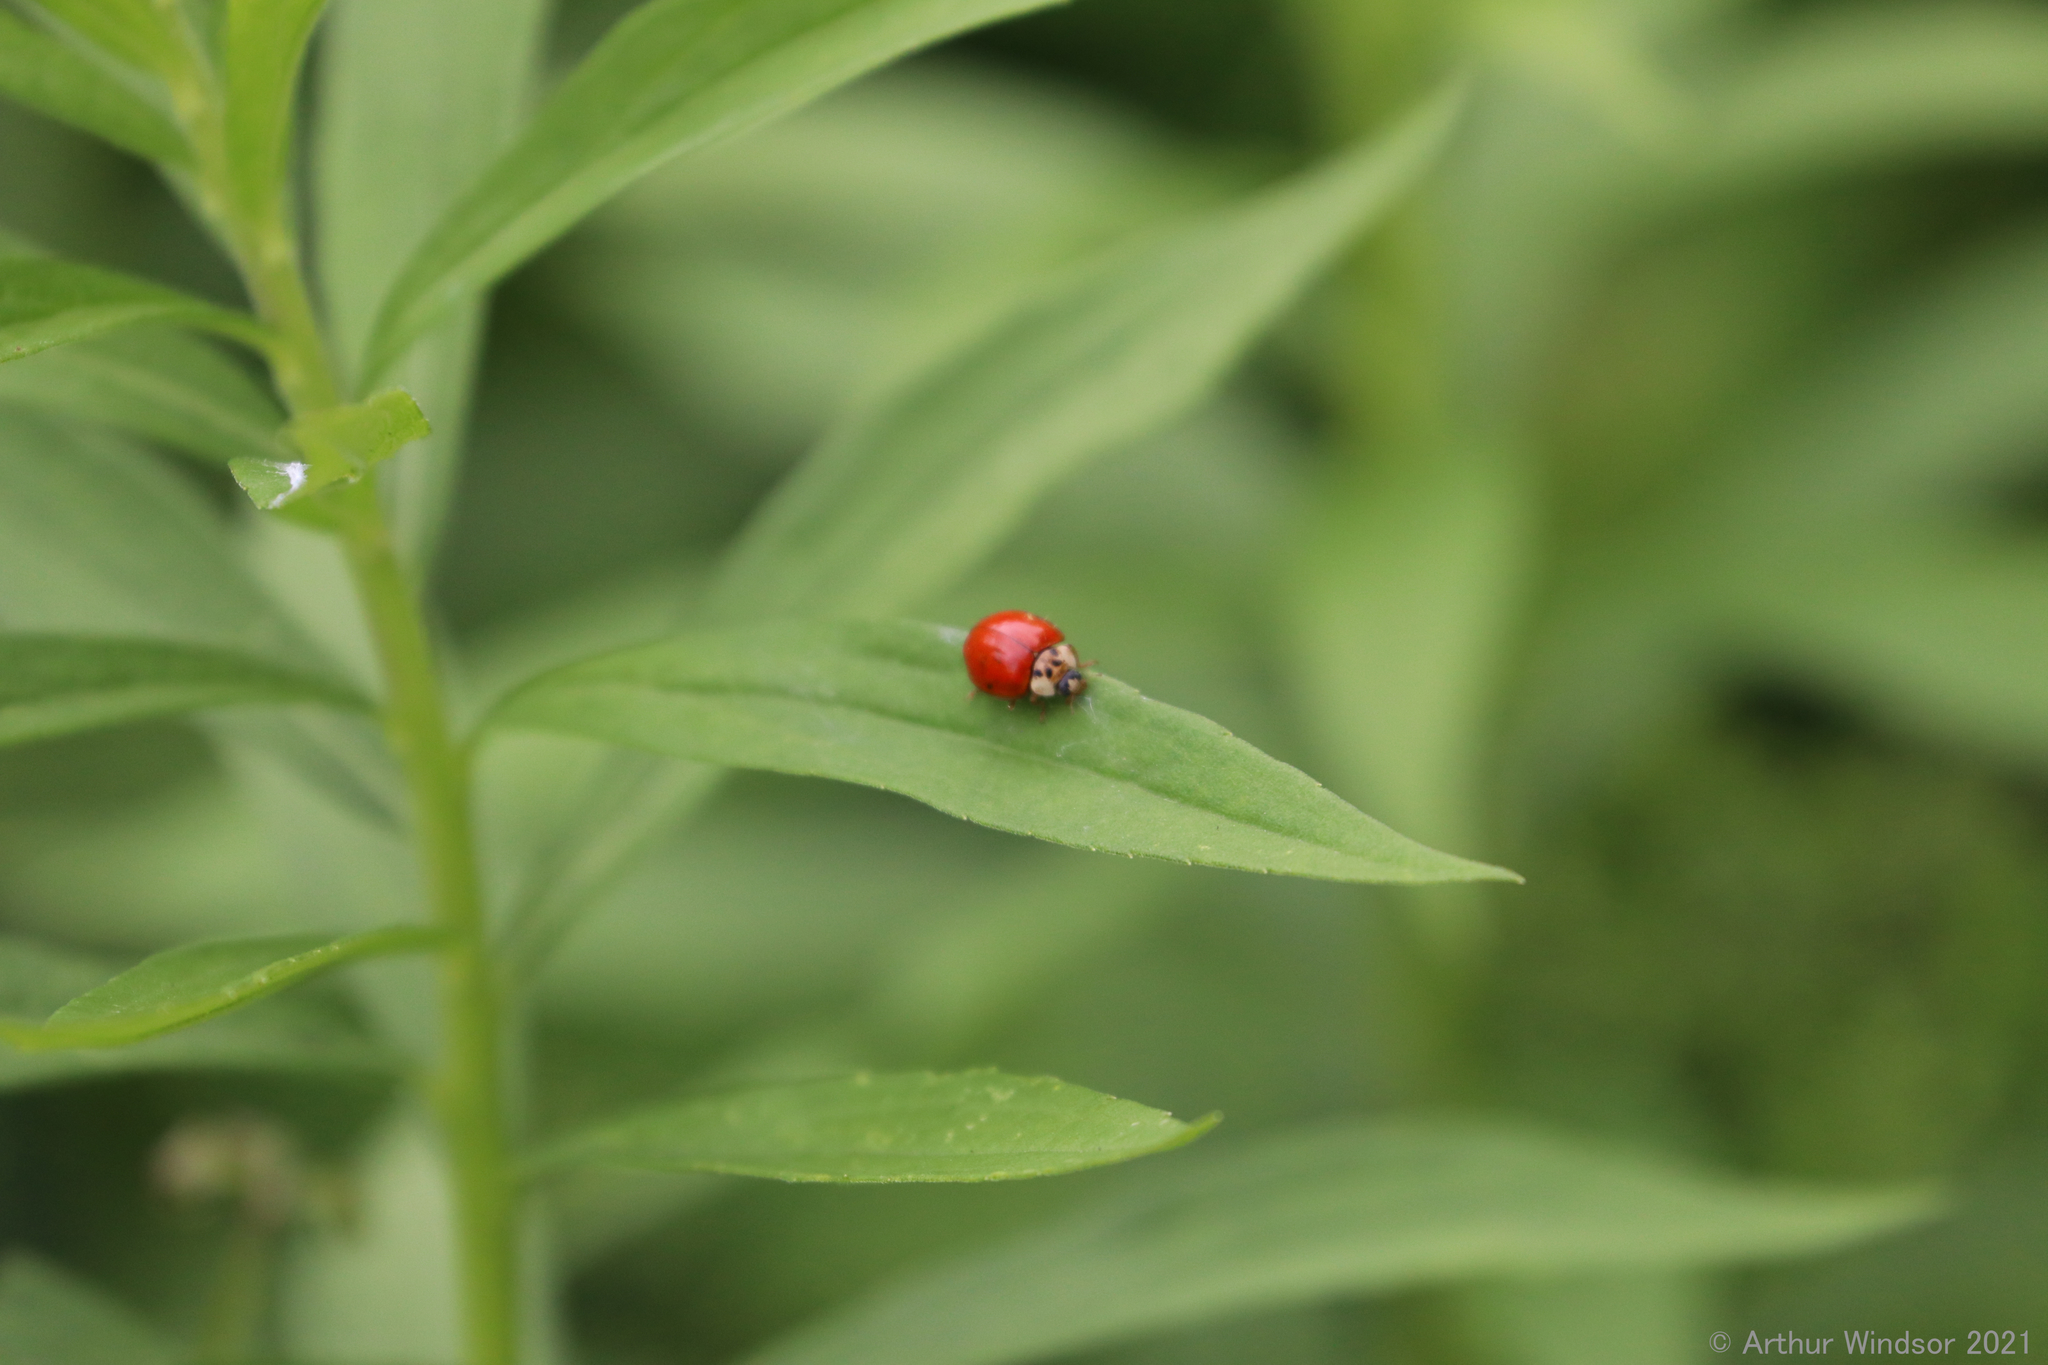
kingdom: Animalia
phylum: Arthropoda
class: Insecta
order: Coleoptera
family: Coccinellidae
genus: Harmonia
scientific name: Harmonia axyridis
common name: Harlequin ladybird
